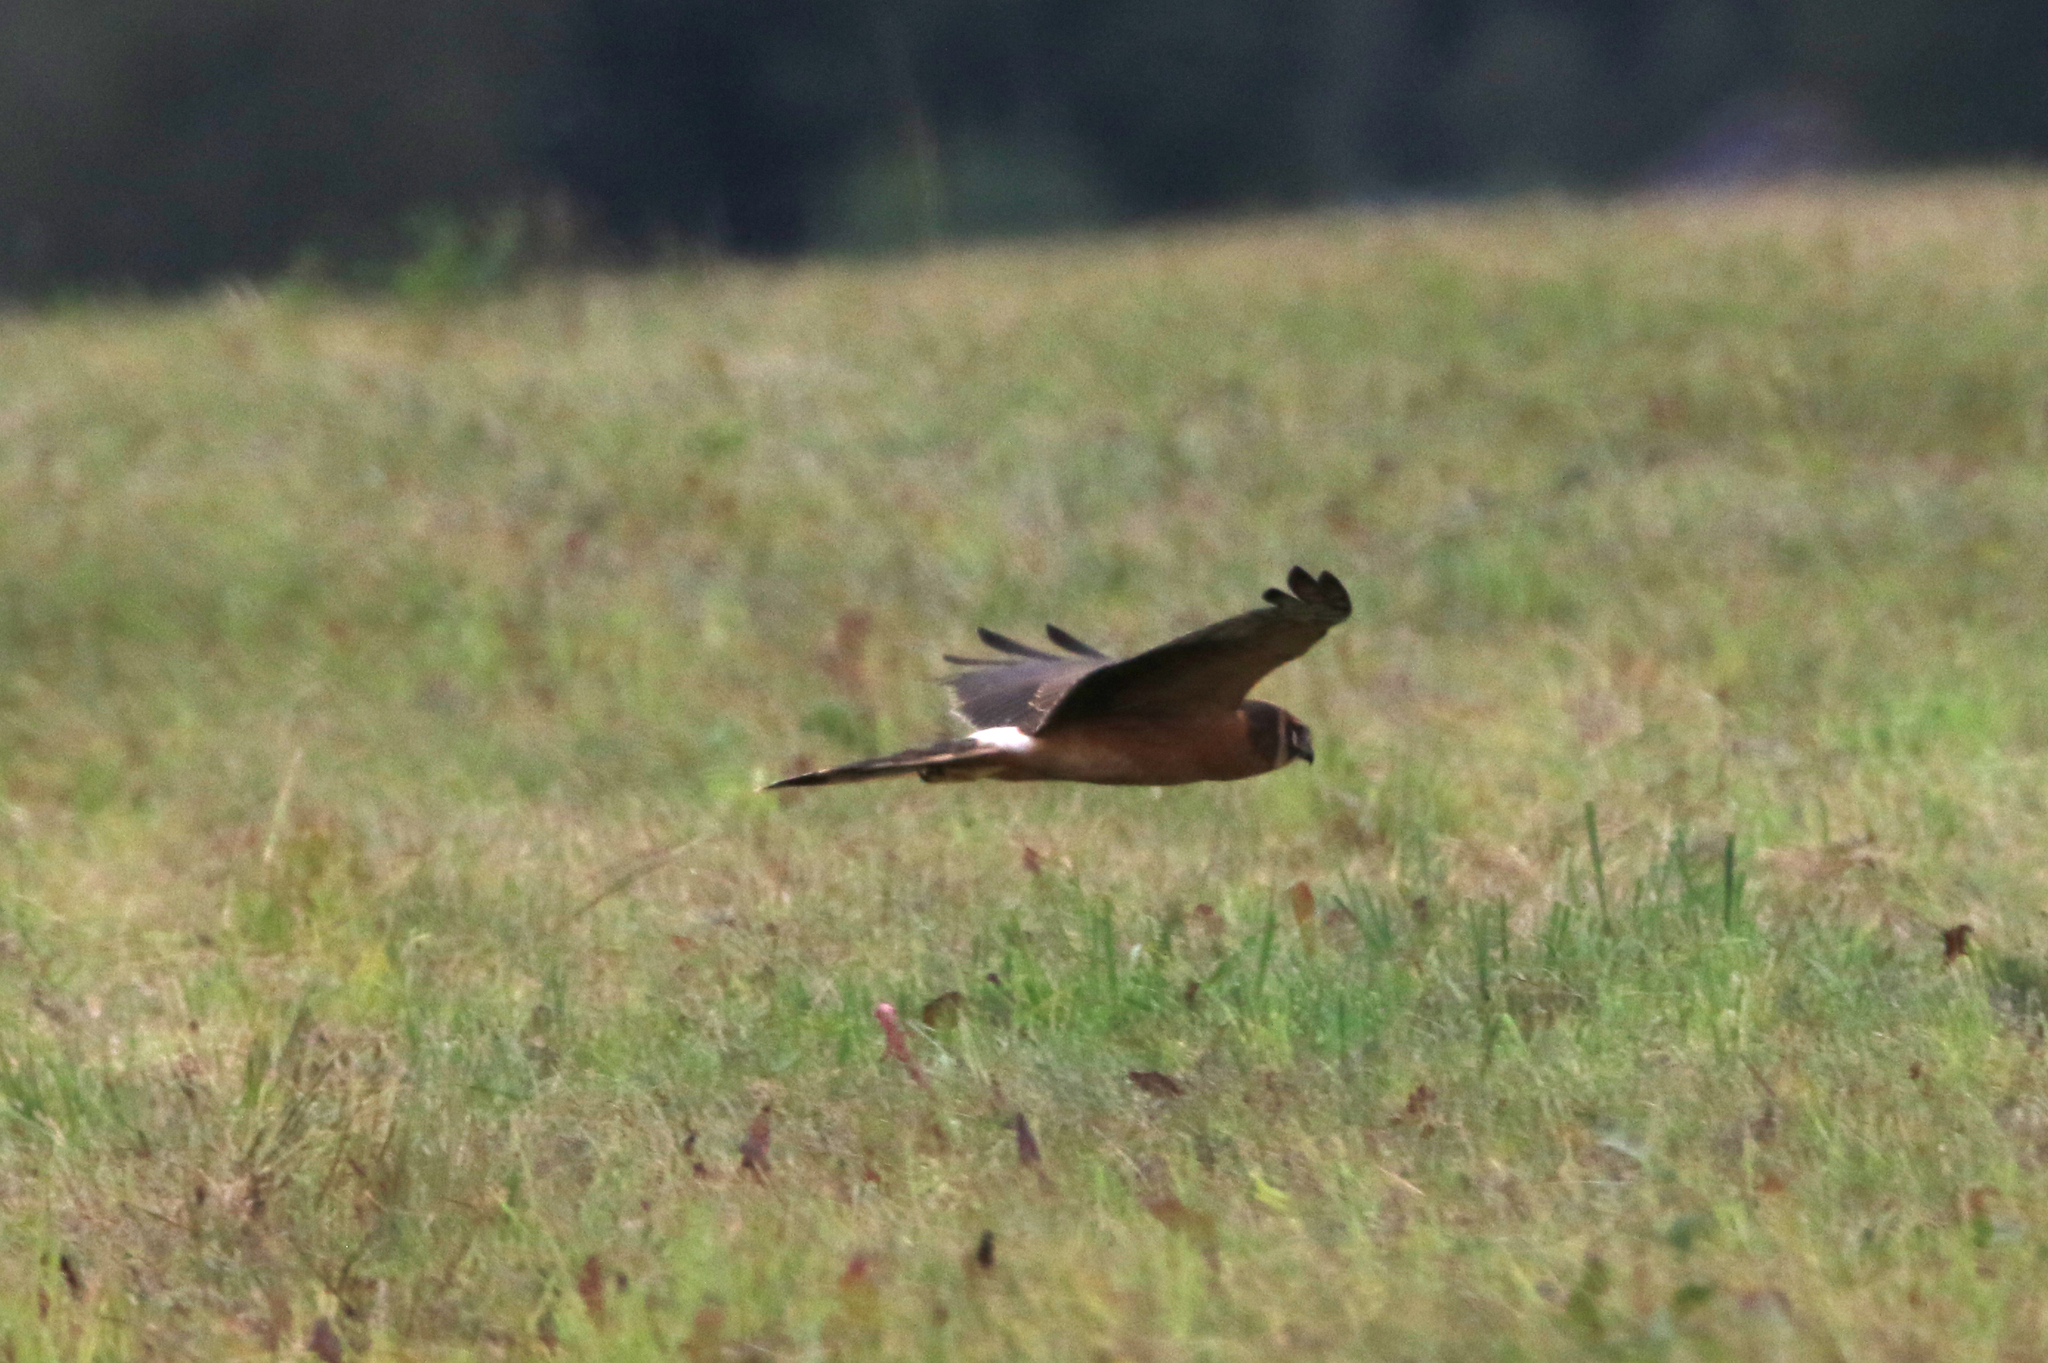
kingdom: Animalia
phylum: Chordata
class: Aves
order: Accipitriformes
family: Accipitridae
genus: Circus
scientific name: Circus macrourus
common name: Pallid harrier
